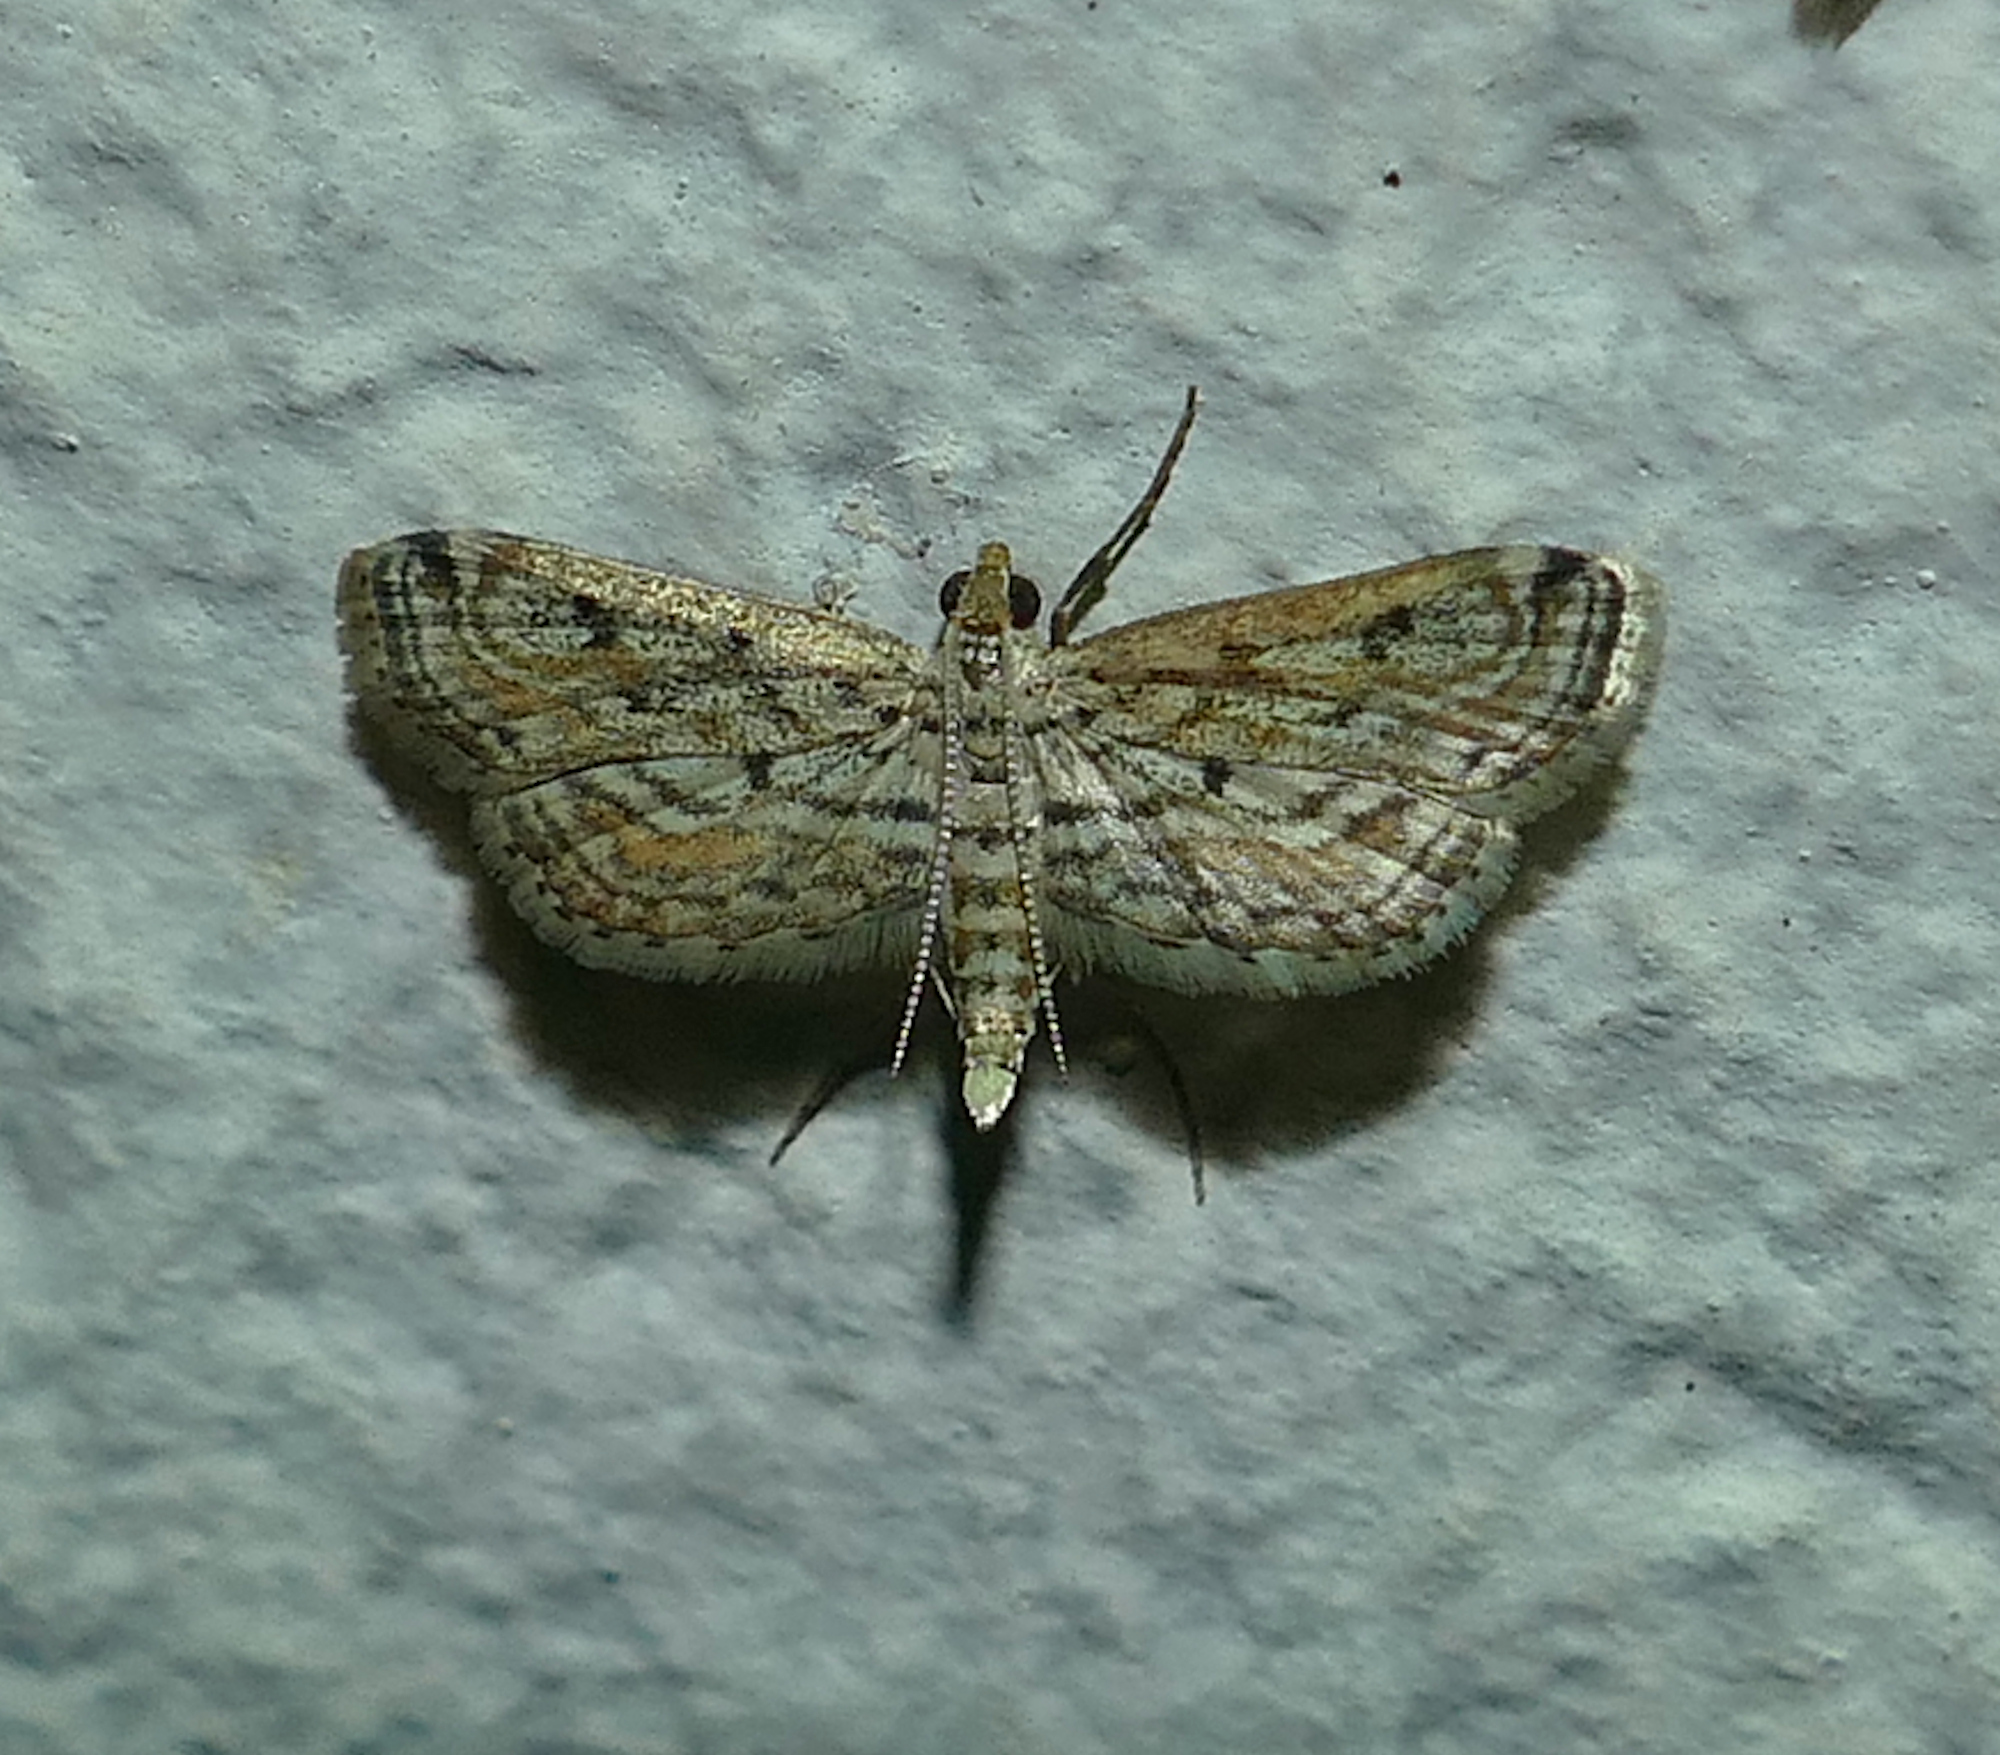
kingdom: Animalia
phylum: Arthropoda
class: Insecta
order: Lepidoptera
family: Crambidae
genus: Parapoynx
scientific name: Parapoynx allionealis
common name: Bladderwort casemaker
